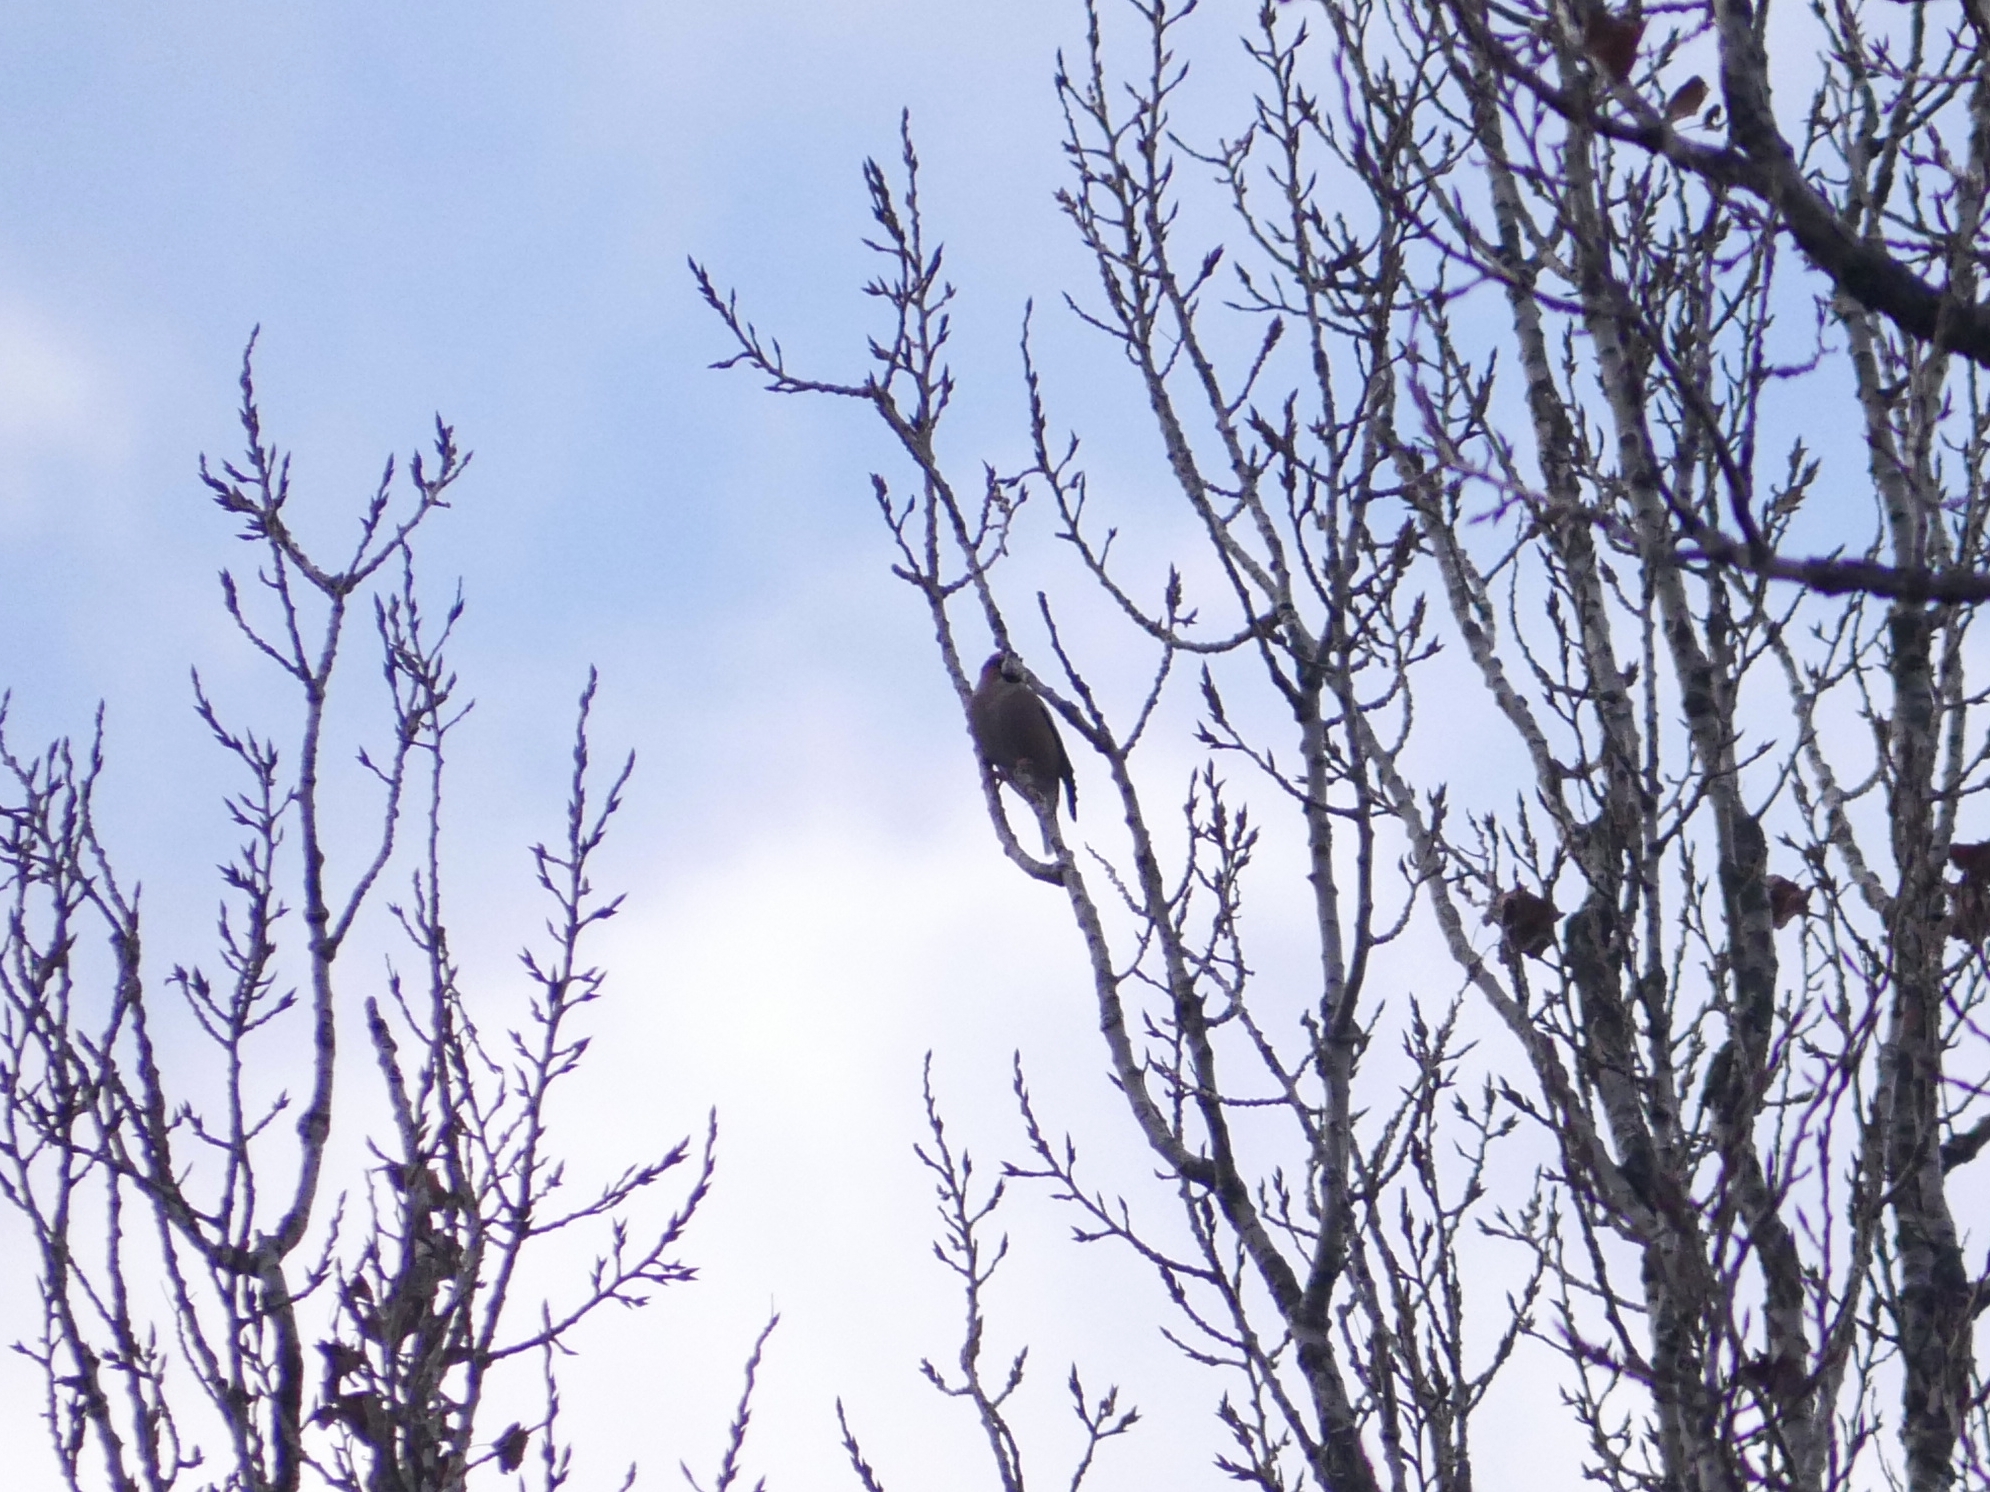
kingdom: Animalia
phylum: Chordata
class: Aves
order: Passeriformes
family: Fringillidae
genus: Coccothraustes
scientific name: Coccothraustes coccothraustes
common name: Hawfinch
